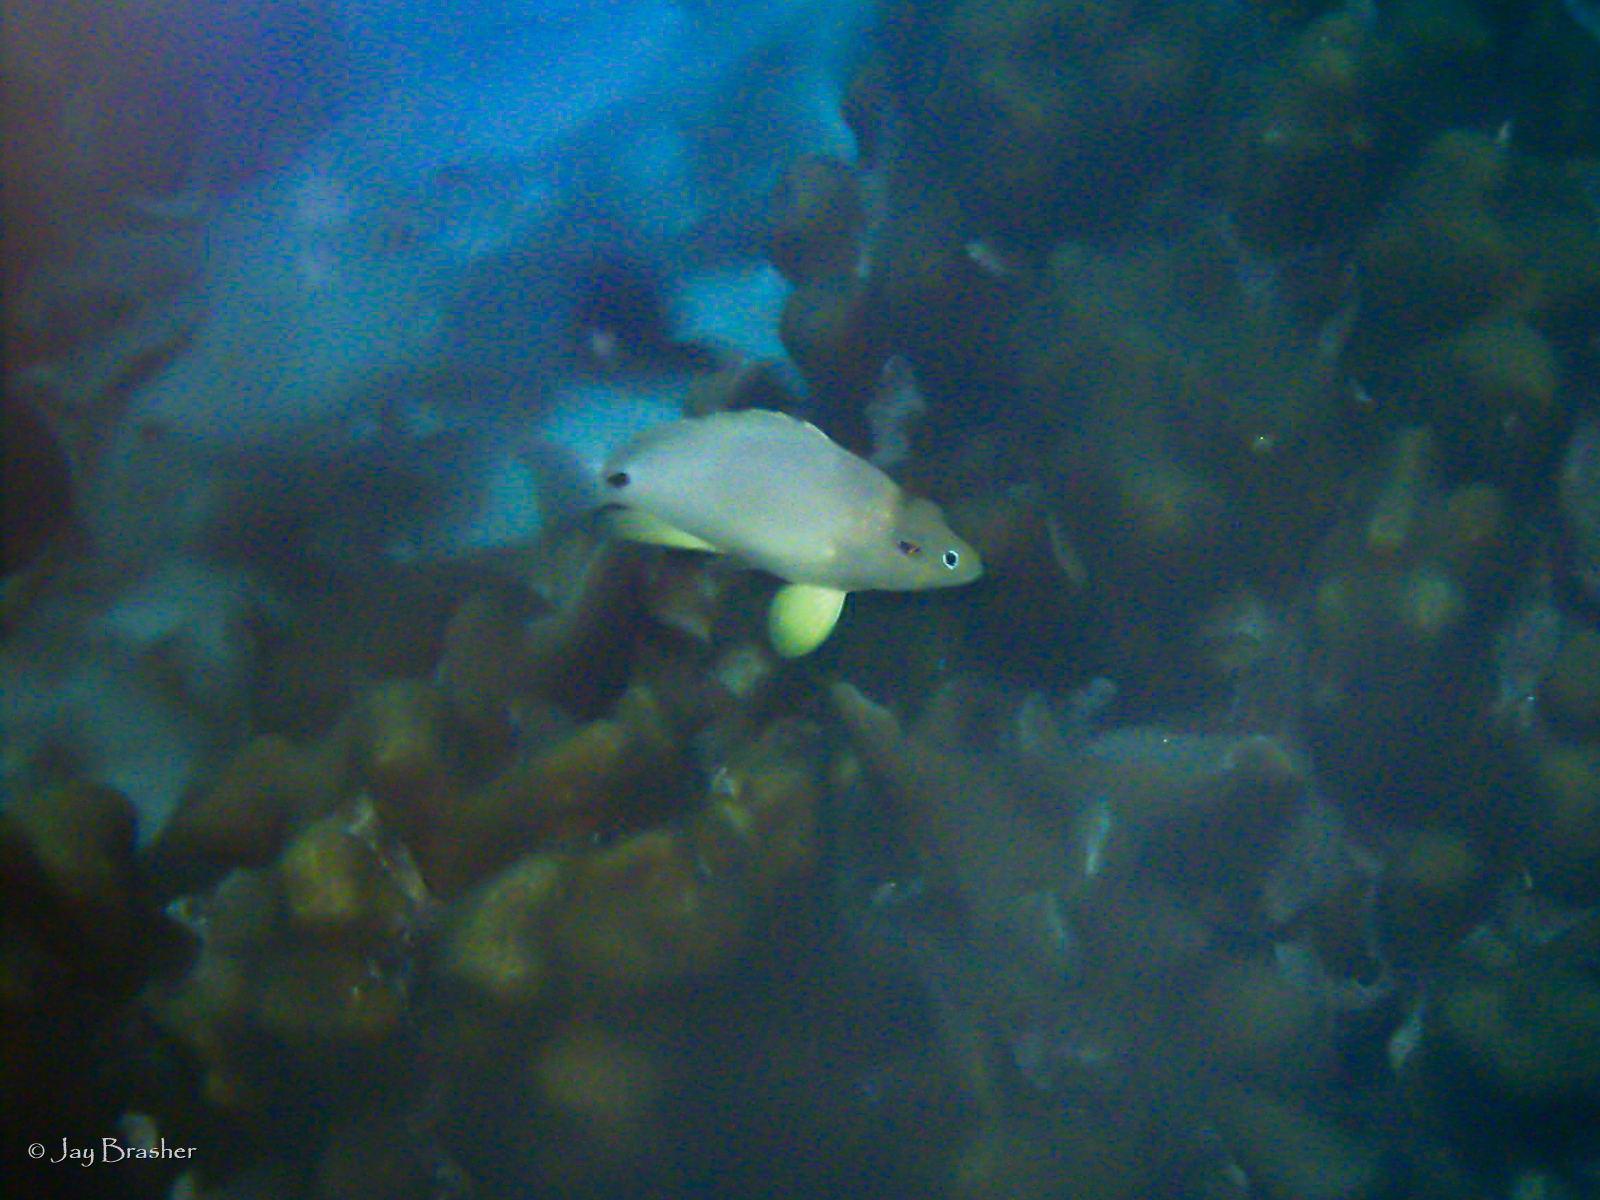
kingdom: Animalia
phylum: Chordata
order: Perciformes
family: Serranidae
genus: Hypoplectrus
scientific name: Hypoplectrus unicolor
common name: Butter hamlet
